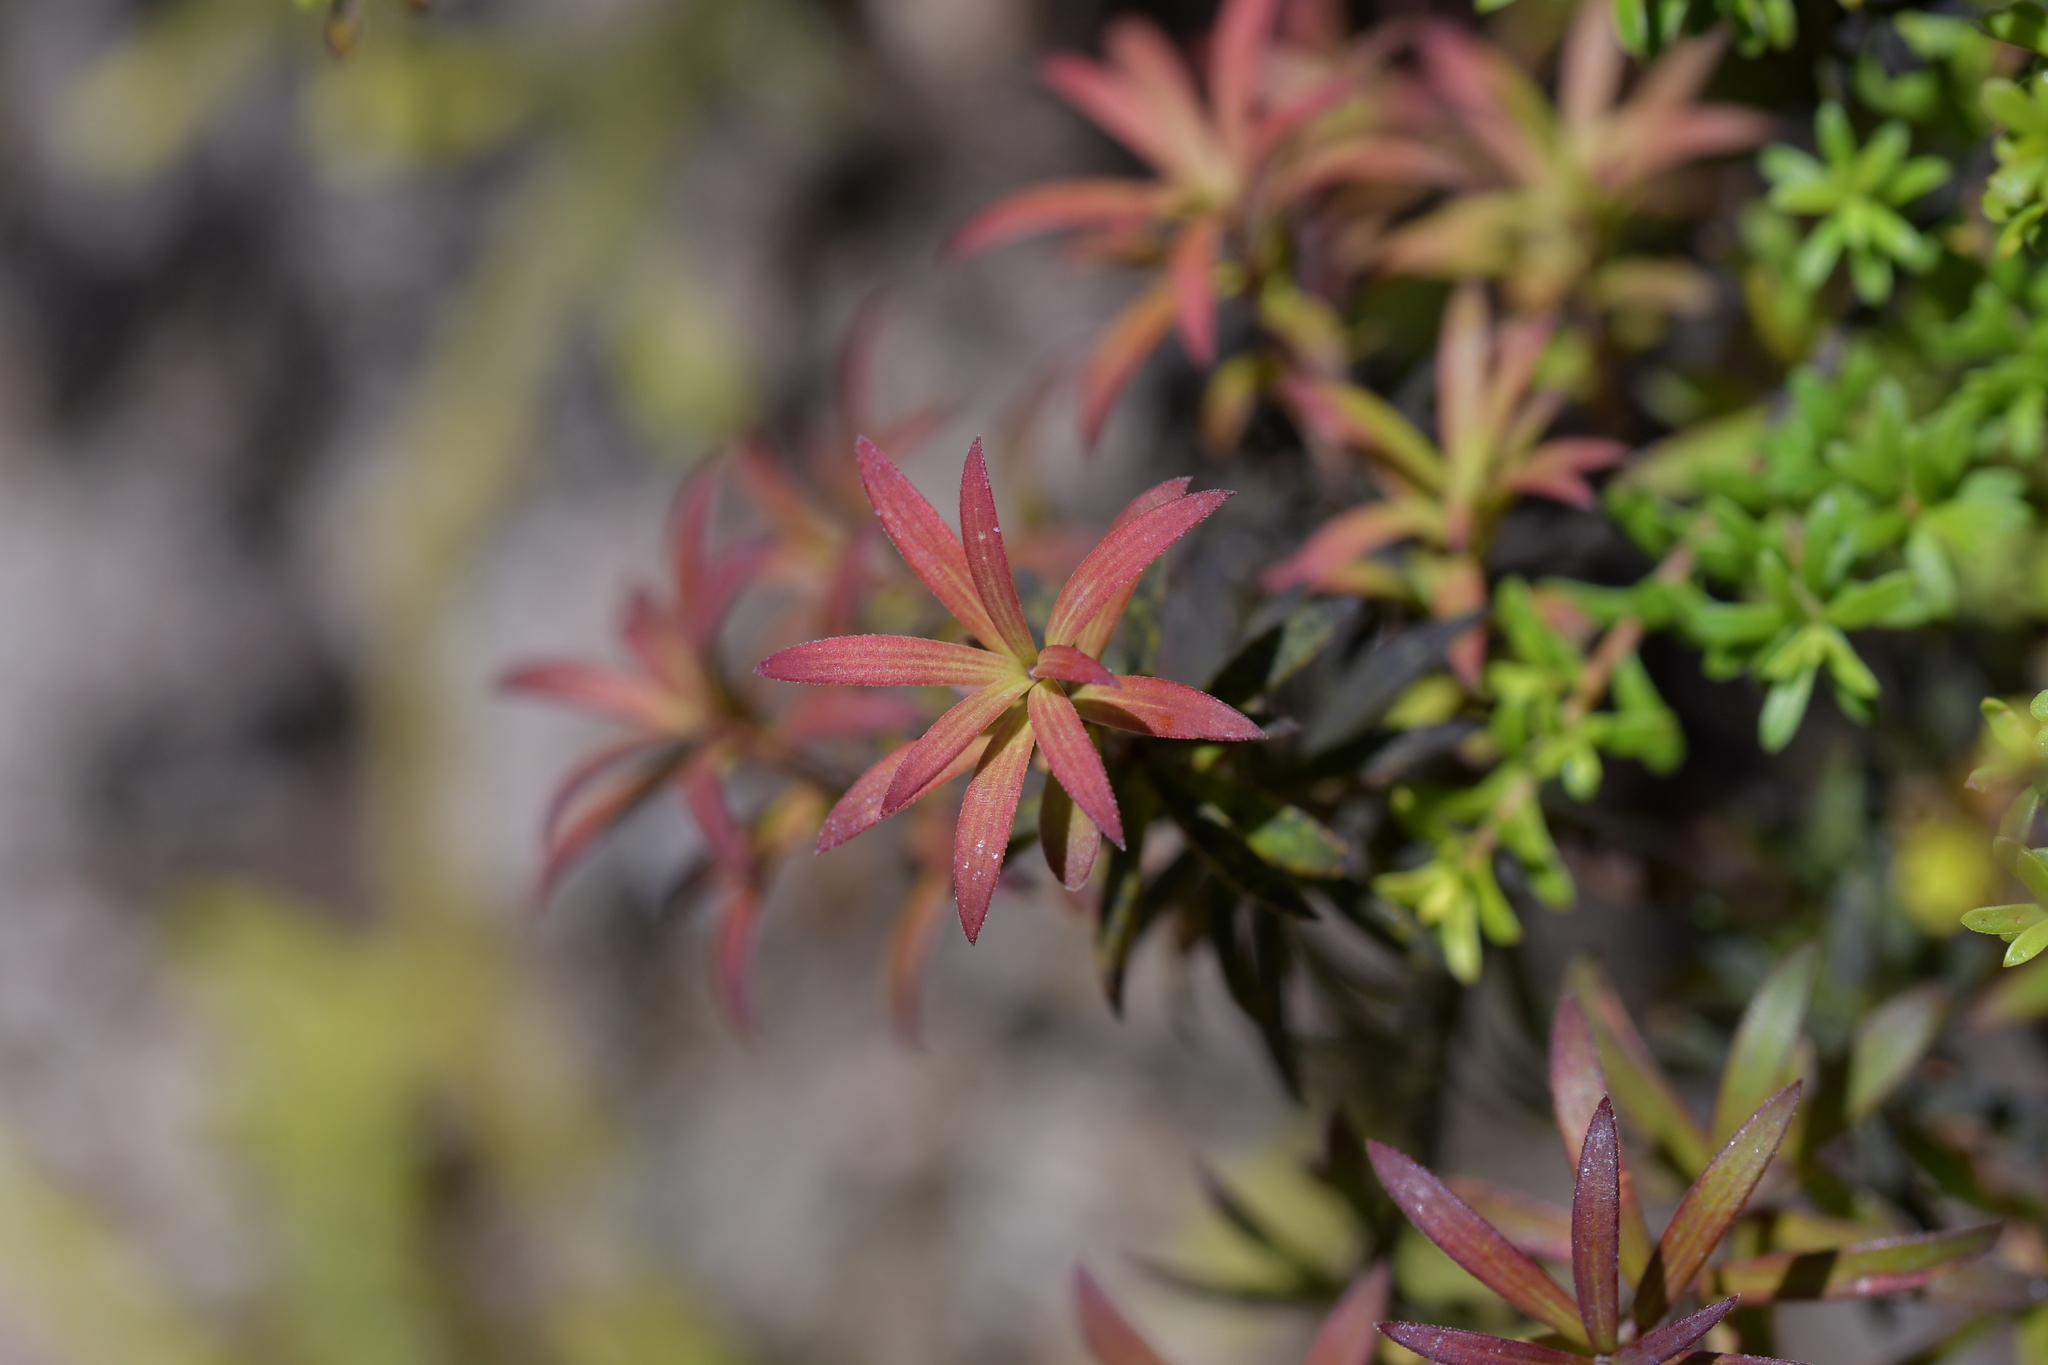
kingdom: Plantae
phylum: Tracheophyta
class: Magnoliopsida
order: Ericales
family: Ericaceae
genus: Leucopogon
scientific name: Leucopogon fasciculatus
